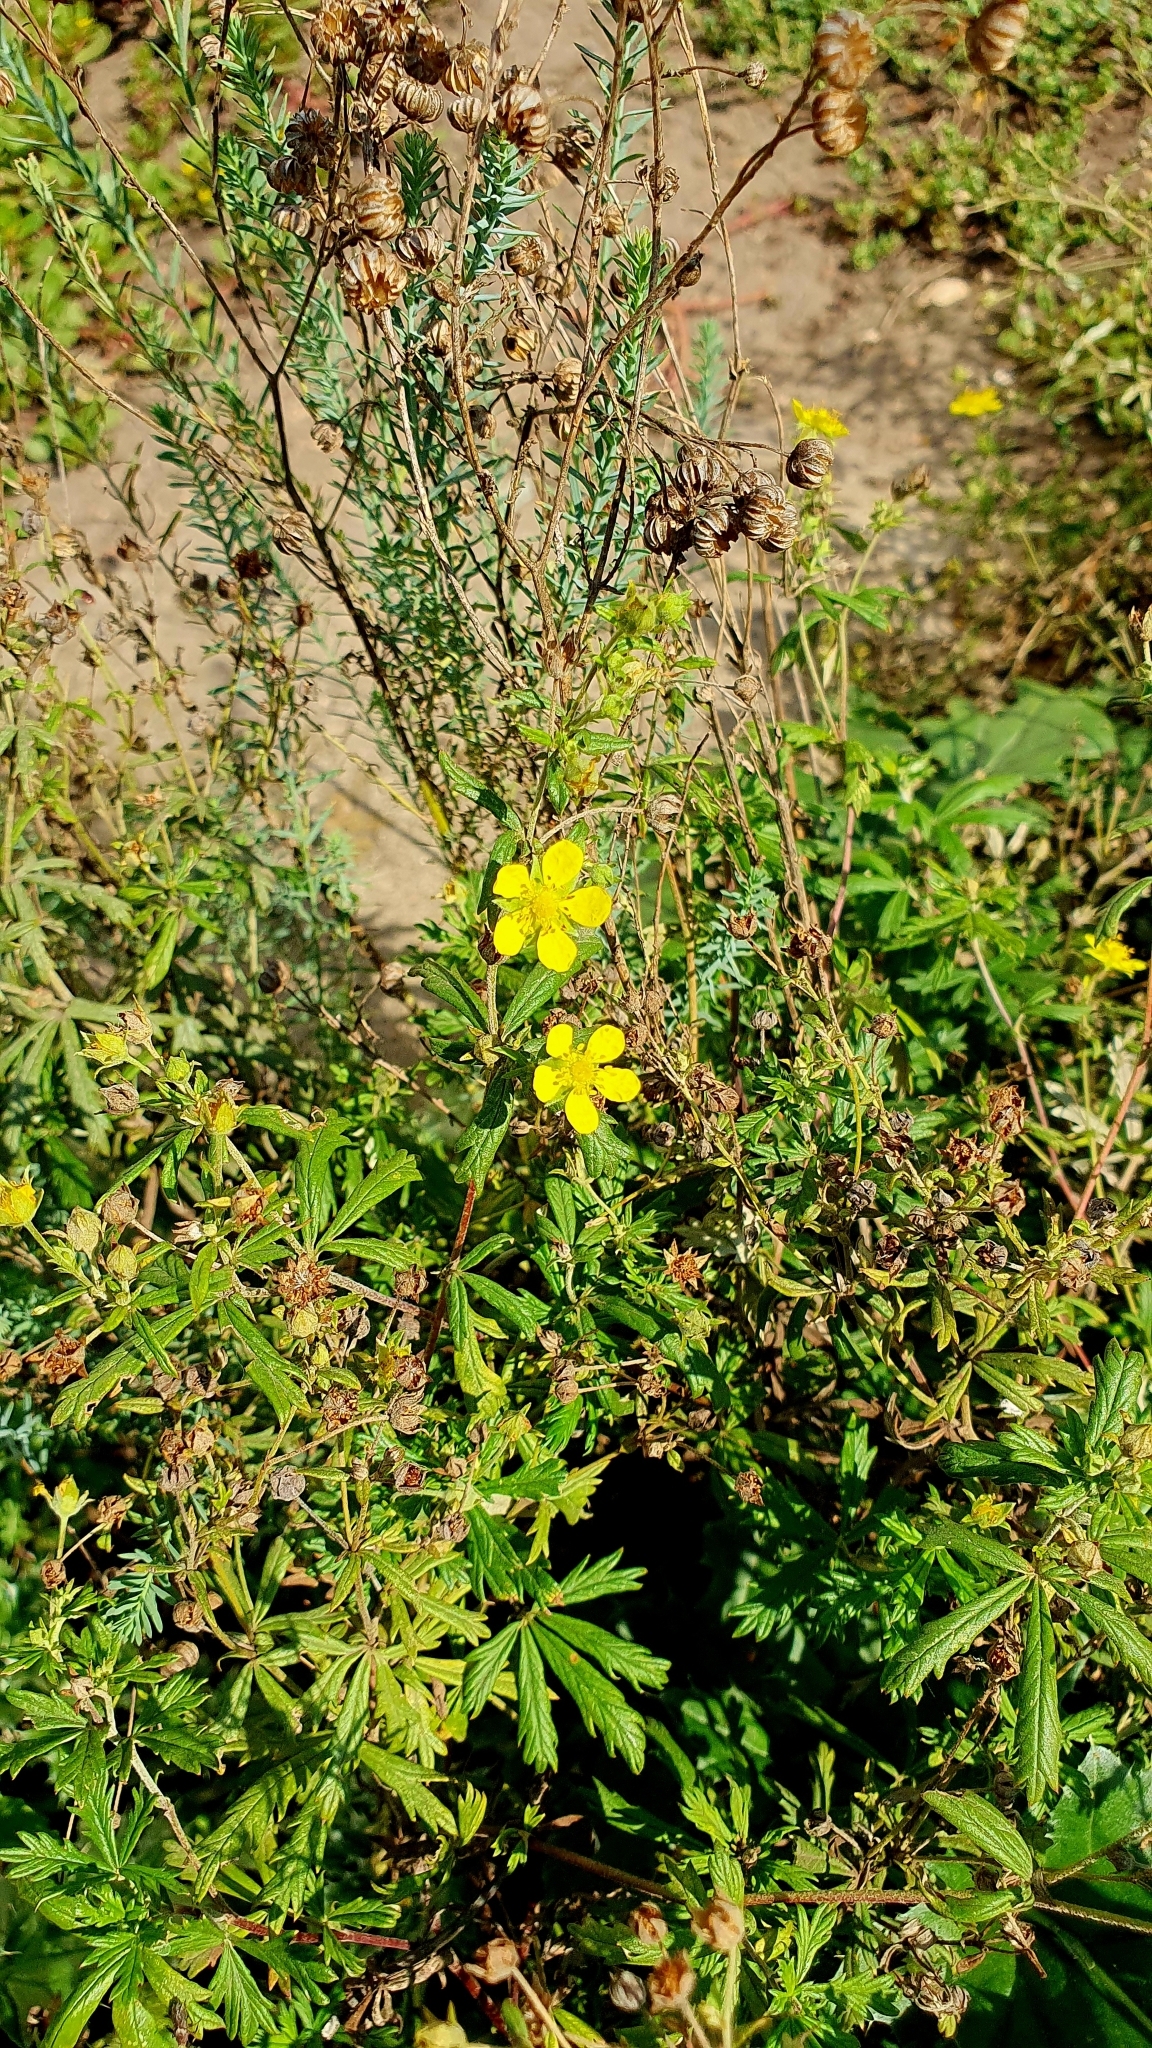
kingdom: Plantae
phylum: Tracheophyta
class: Magnoliopsida
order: Rosales
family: Rosaceae
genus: Potentilla
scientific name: Potentilla argentea
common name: Hoary cinquefoil
